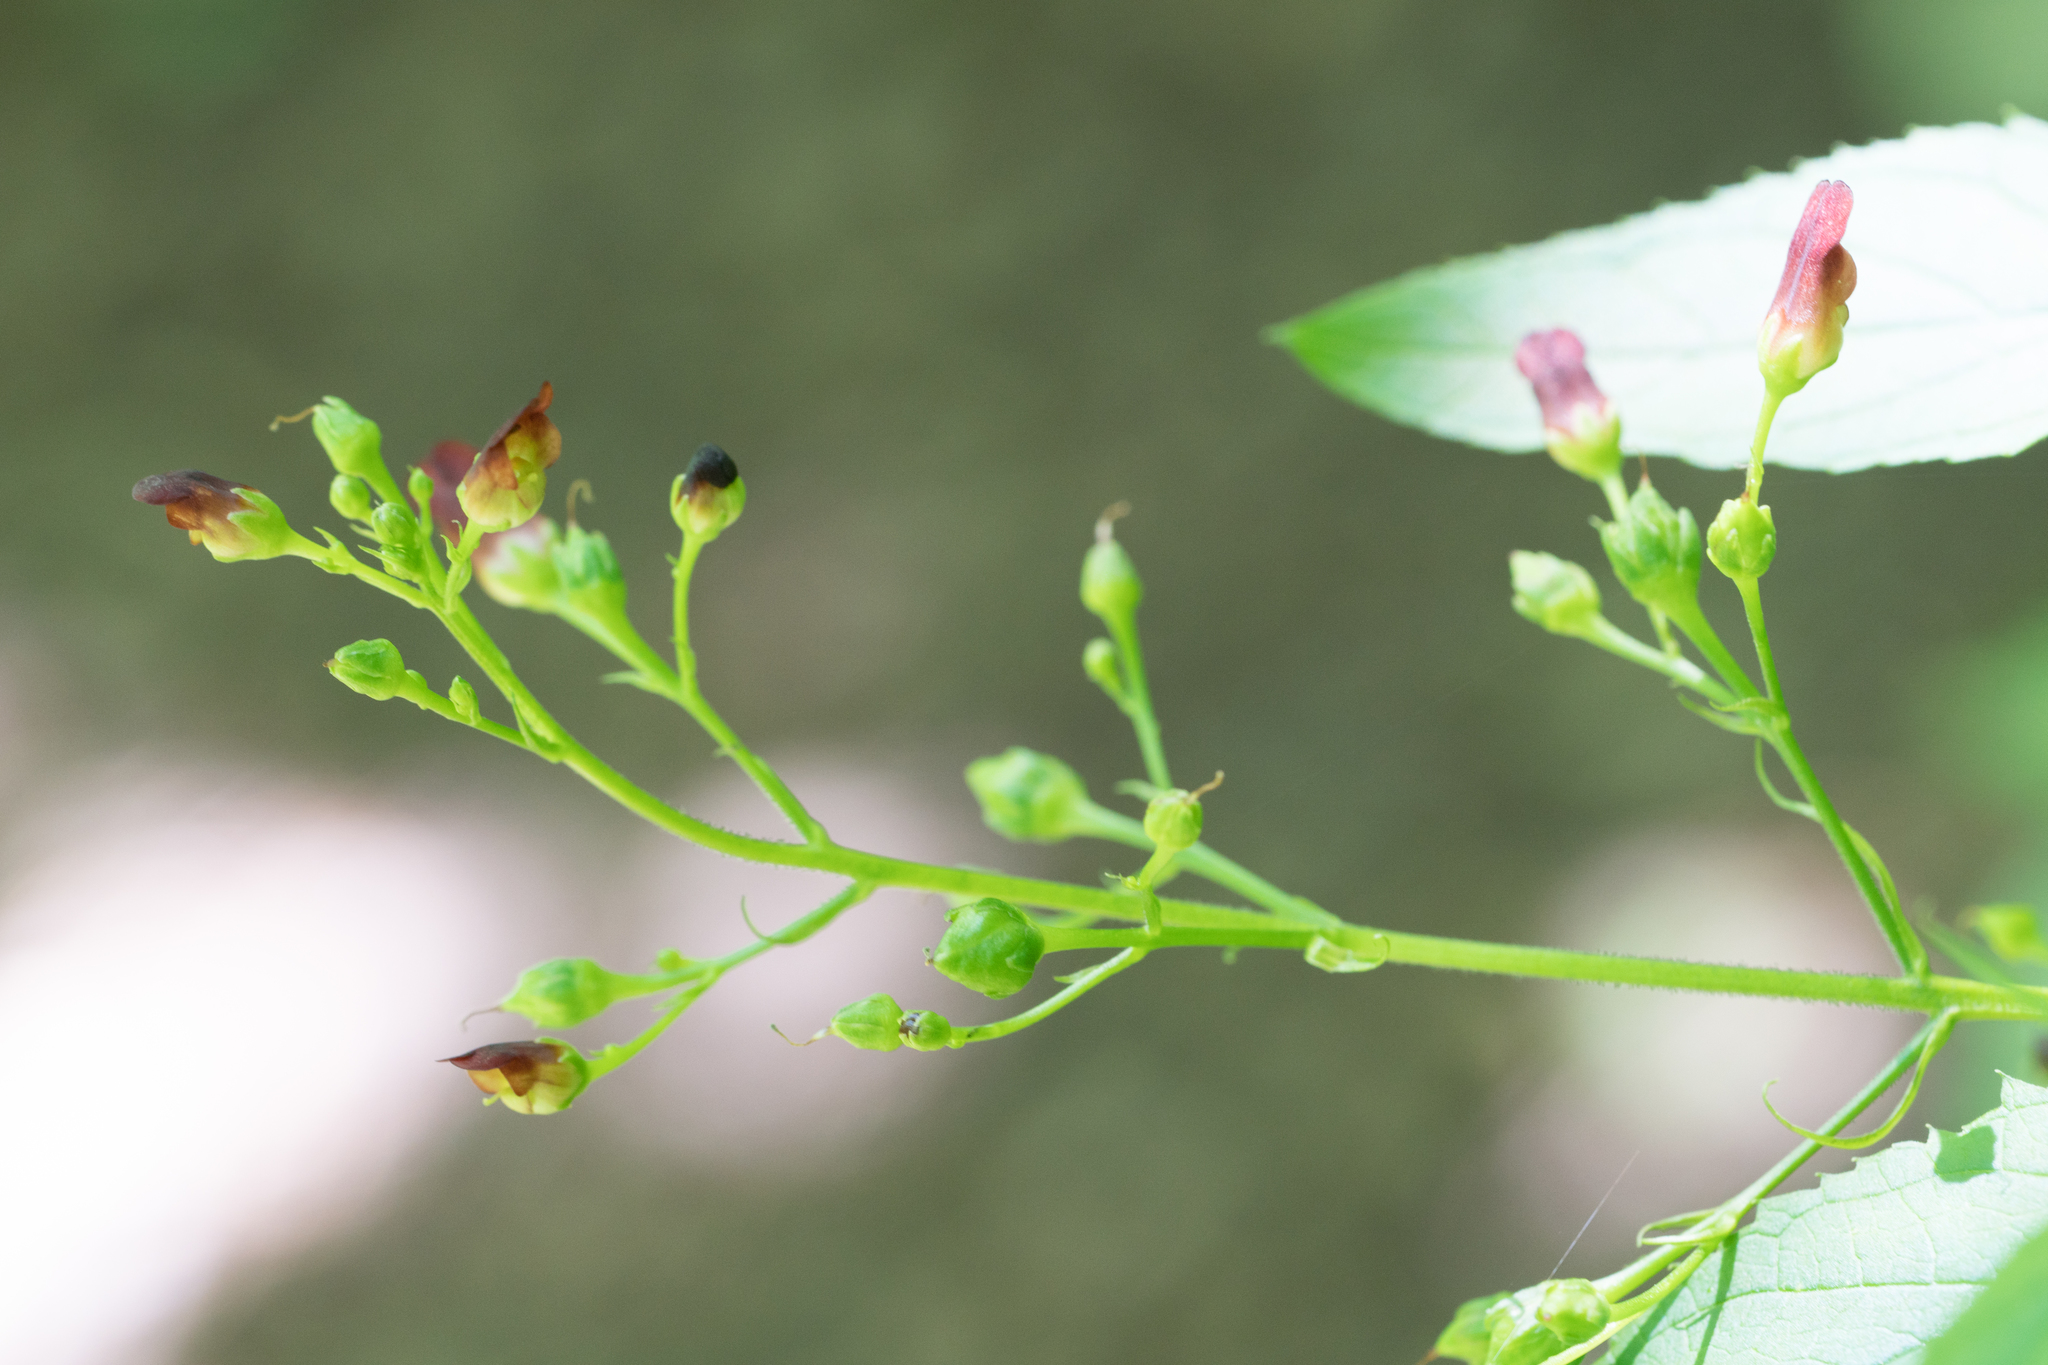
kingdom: Plantae
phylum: Tracheophyta
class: Magnoliopsida
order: Lamiales
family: Scrophulariaceae
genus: Scrophularia
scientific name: Scrophularia californica
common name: California figwort
